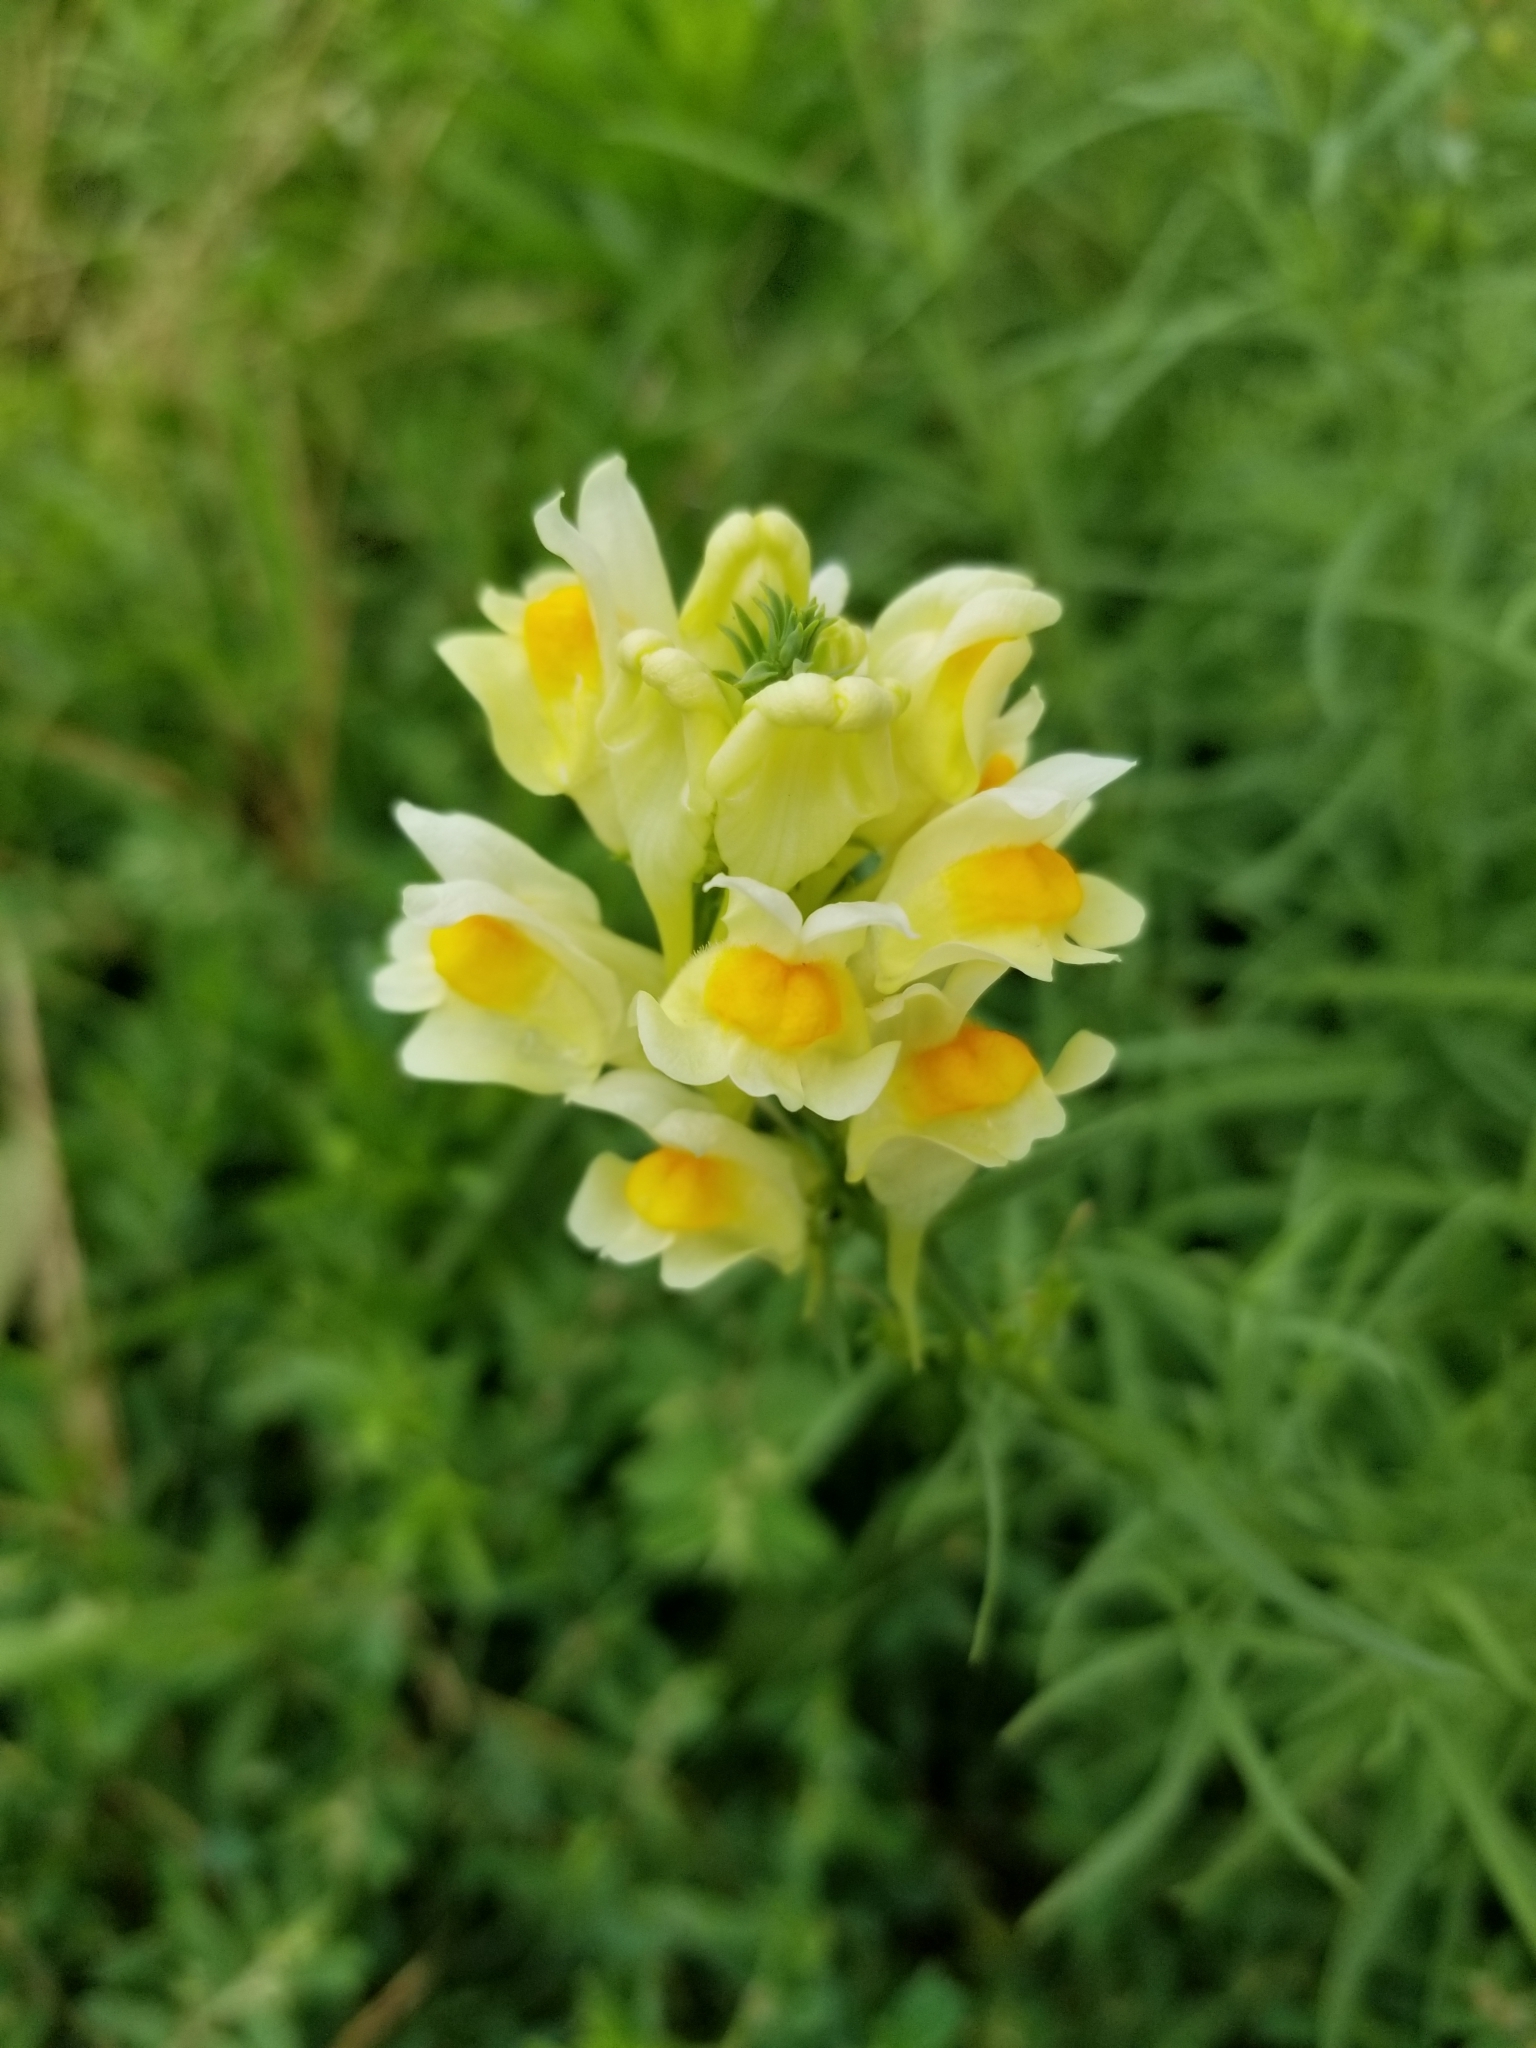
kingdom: Plantae
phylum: Tracheophyta
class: Magnoliopsida
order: Lamiales
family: Plantaginaceae
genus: Linaria
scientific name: Linaria vulgaris
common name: Butter and eggs
